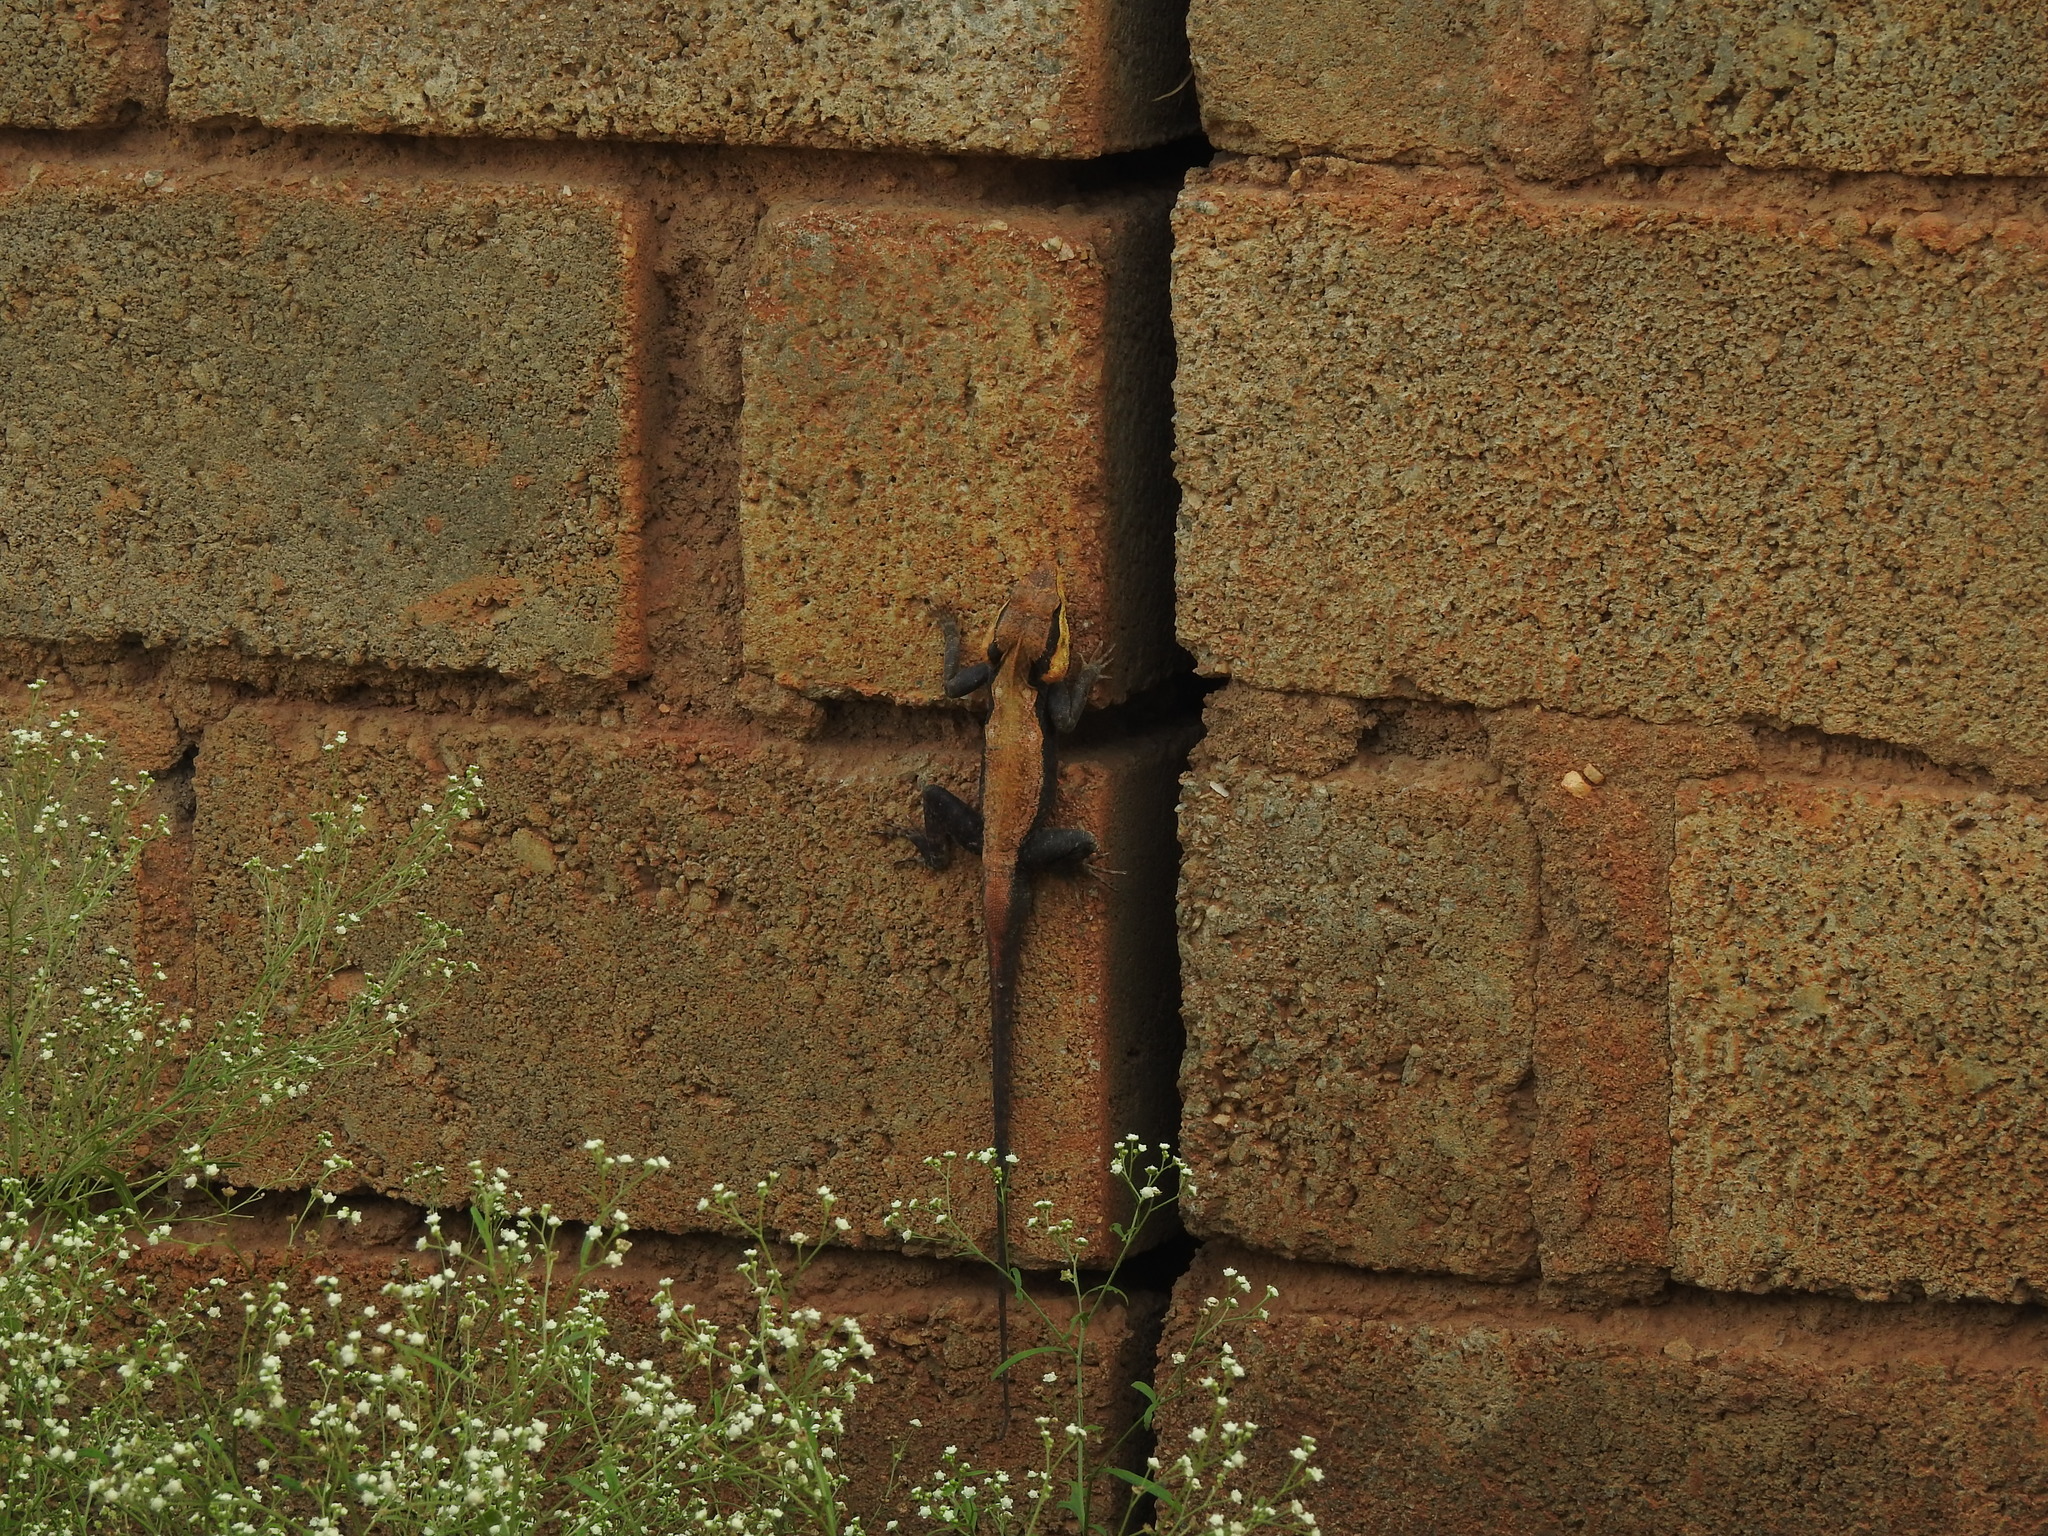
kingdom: Animalia
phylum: Chordata
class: Squamata
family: Agamidae
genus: Psammophilus
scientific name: Psammophilus dorsalis
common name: South indian rock agama
